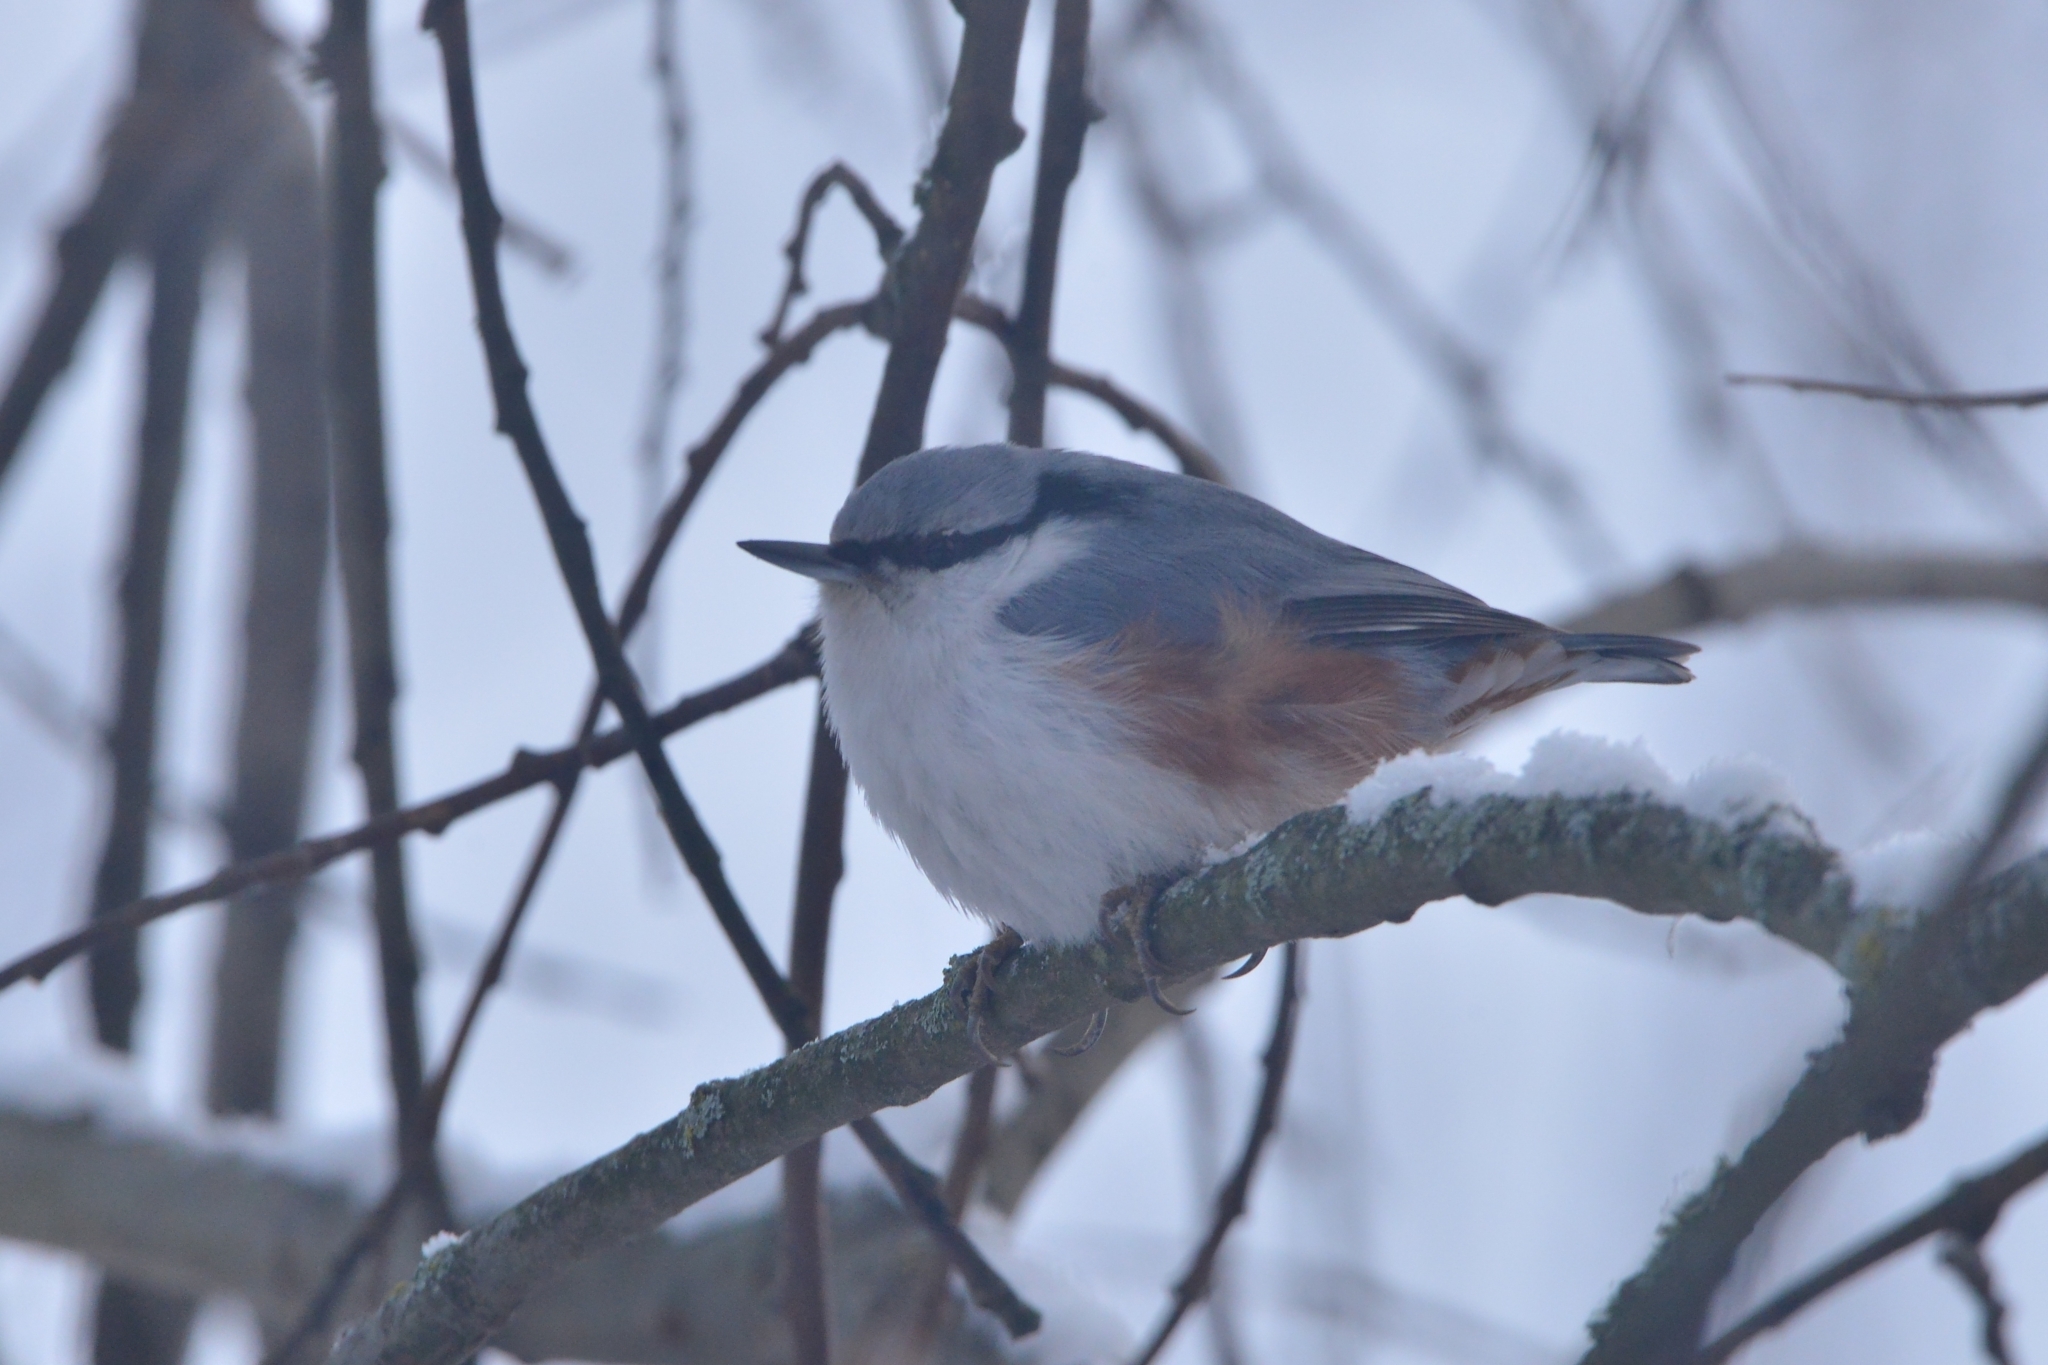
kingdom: Animalia
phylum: Chordata
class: Aves
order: Passeriformes
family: Sittidae
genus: Sitta
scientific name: Sitta europaea
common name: Eurasian nuthatch
